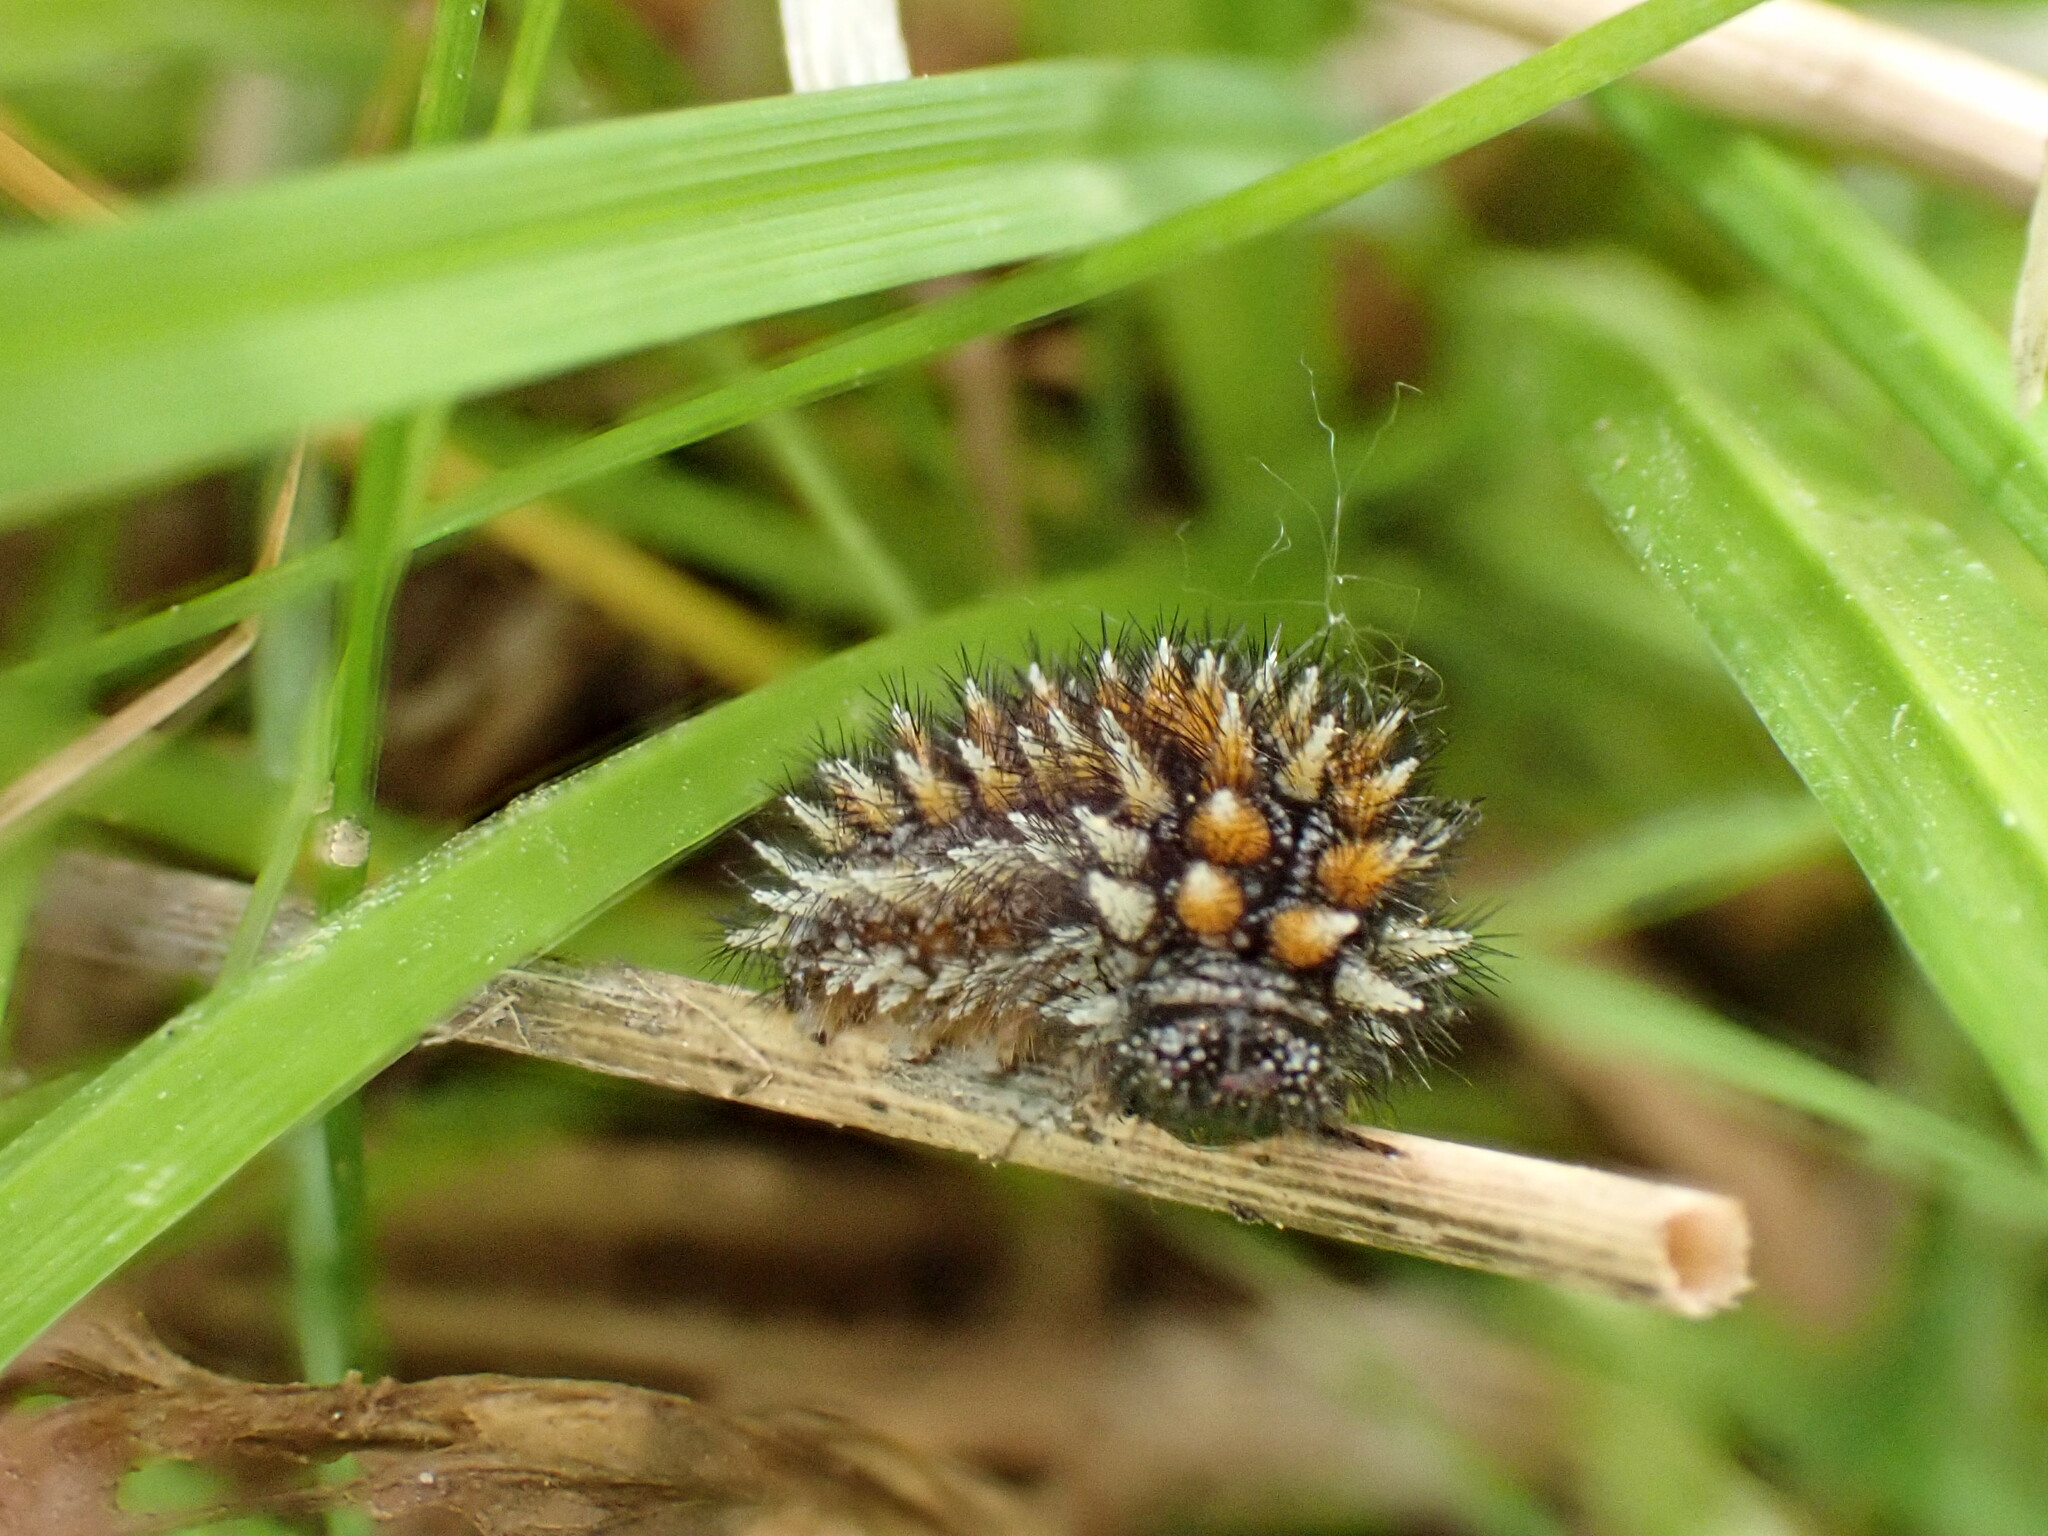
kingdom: Animalia
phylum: Arthropoda
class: Insecta
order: Lepidoptera
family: Nymphalidae
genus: Melitaea
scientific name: Melitaea didyma
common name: Spotted fritillary
